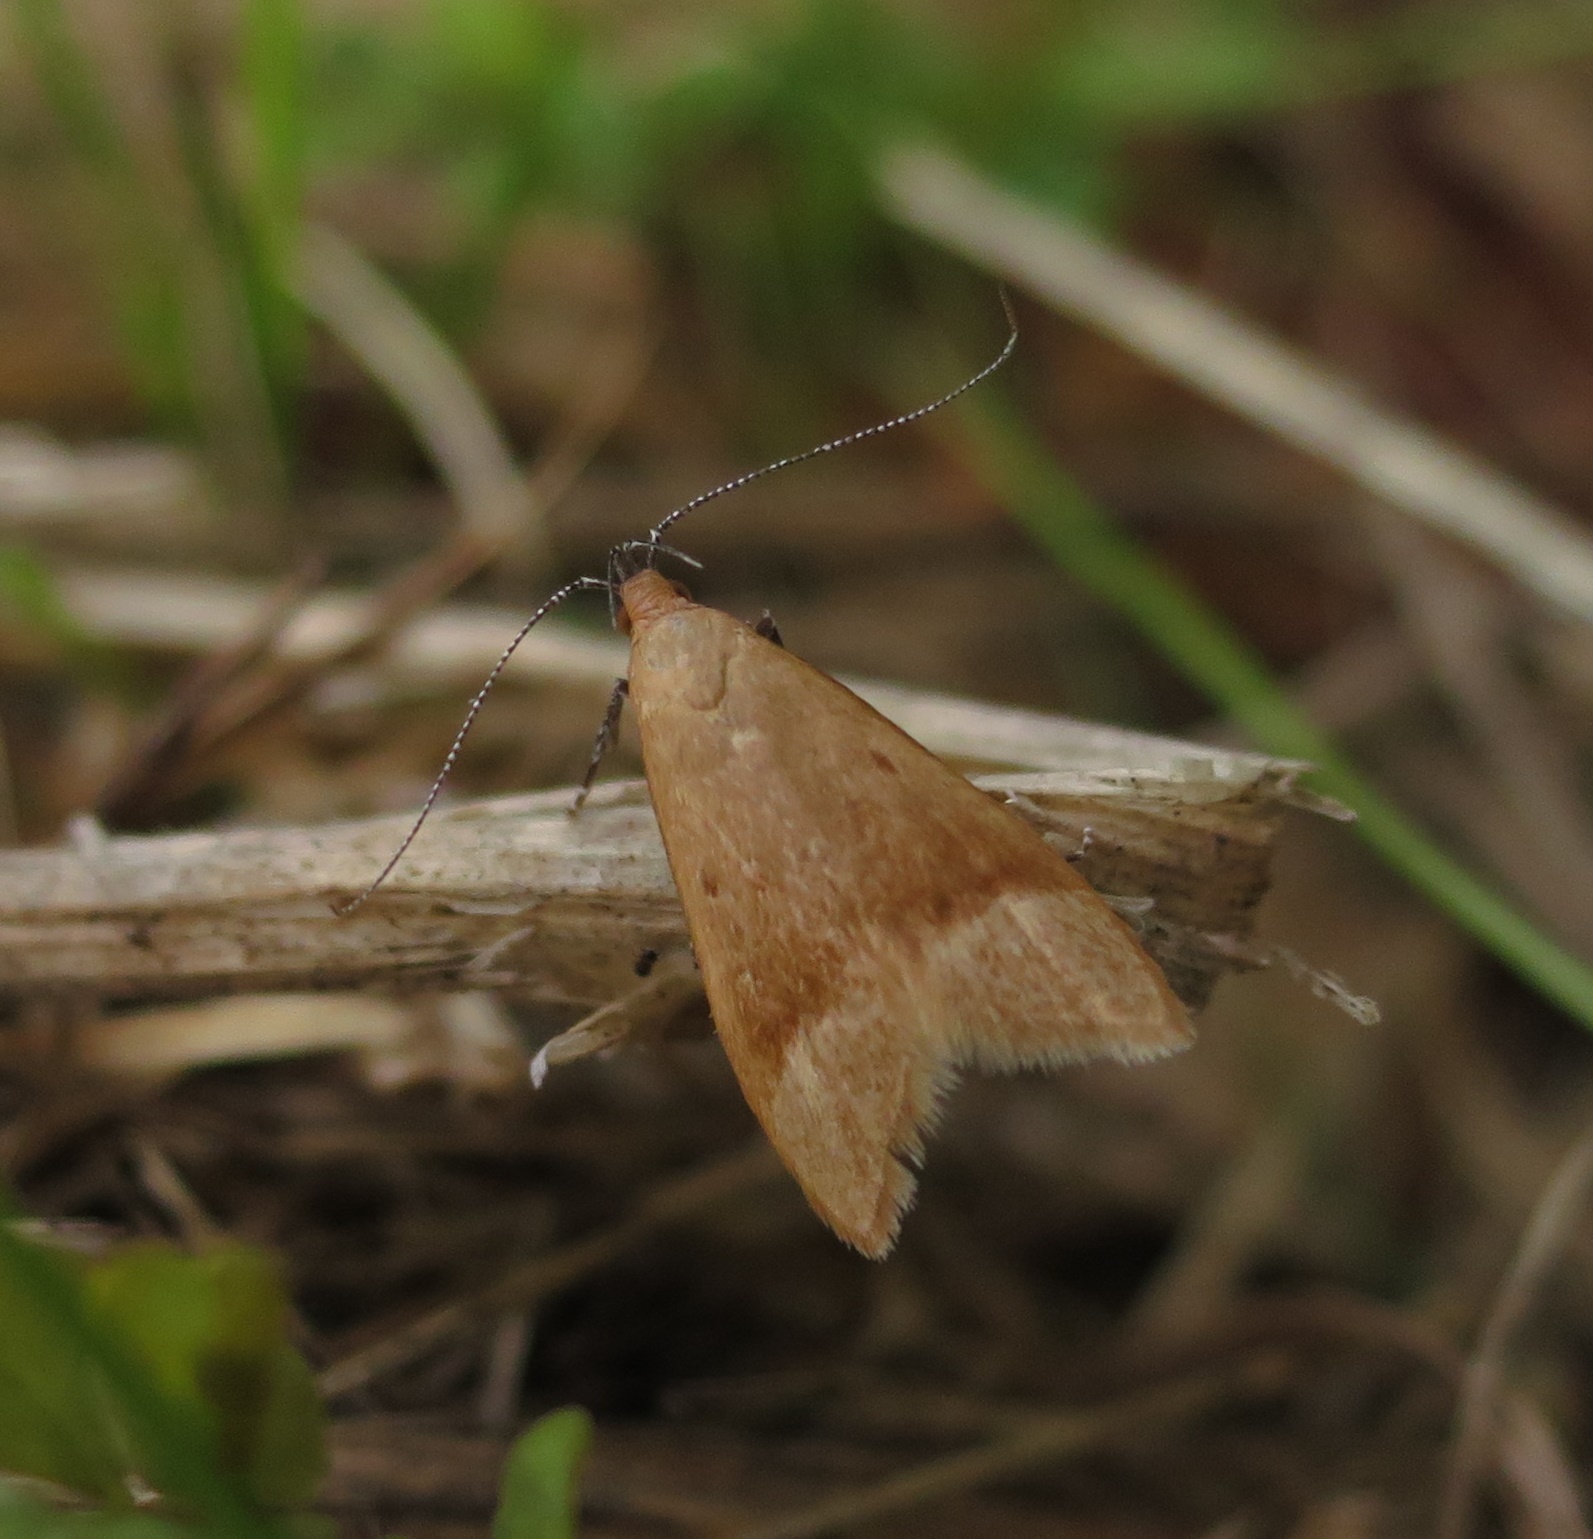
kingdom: Animalia
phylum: Arthropoda
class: Insecta
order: Lepidoptera
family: Oecophoridae
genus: Gymnobathra
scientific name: Gymnobathra hyetodes
